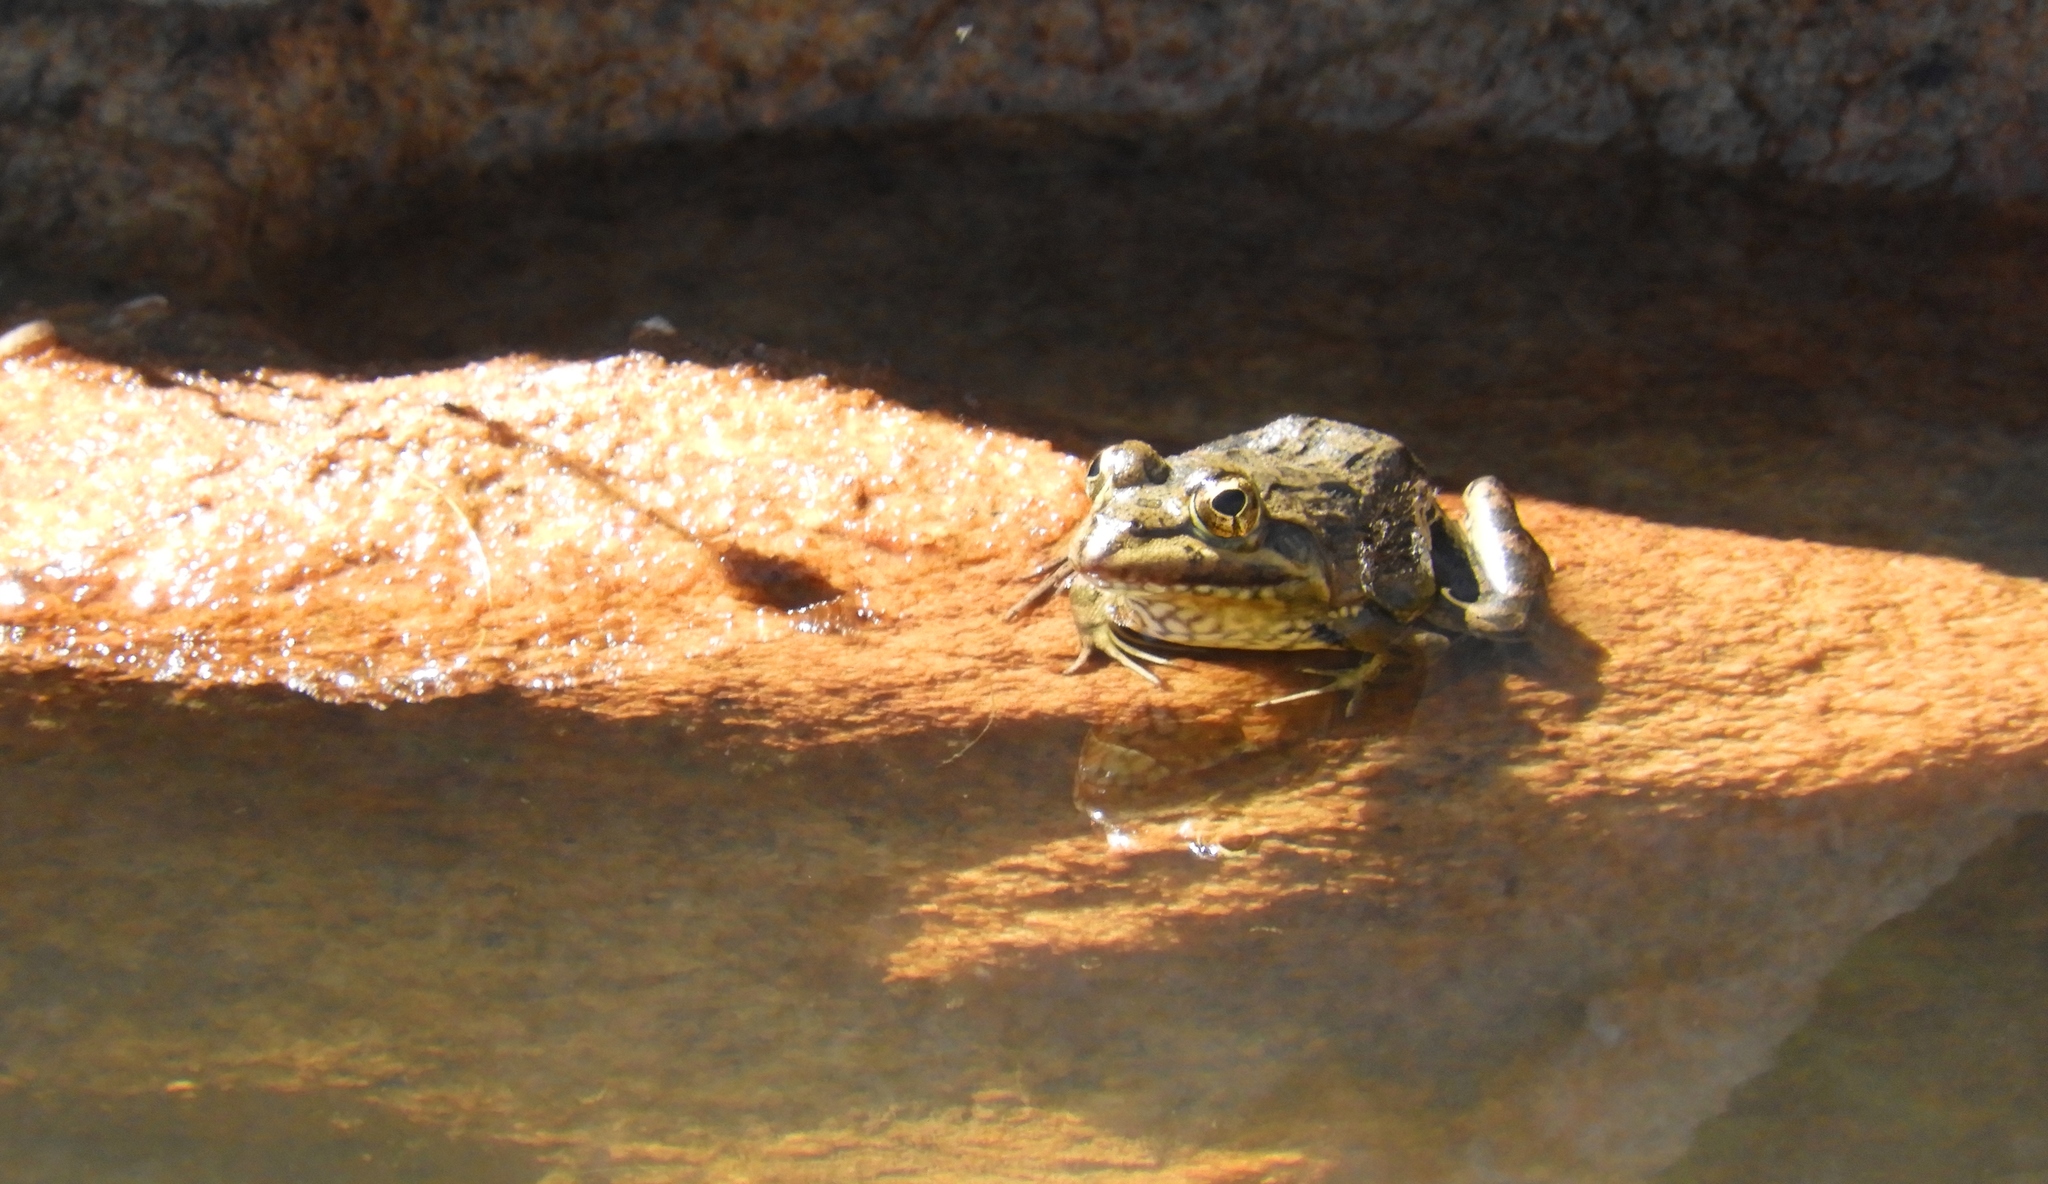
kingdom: Animalia
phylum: Chordata
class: Amphibia
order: Anura
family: Pyxicephalidae
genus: Amietia
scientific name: Amietia fuscigula
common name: Cape rana
